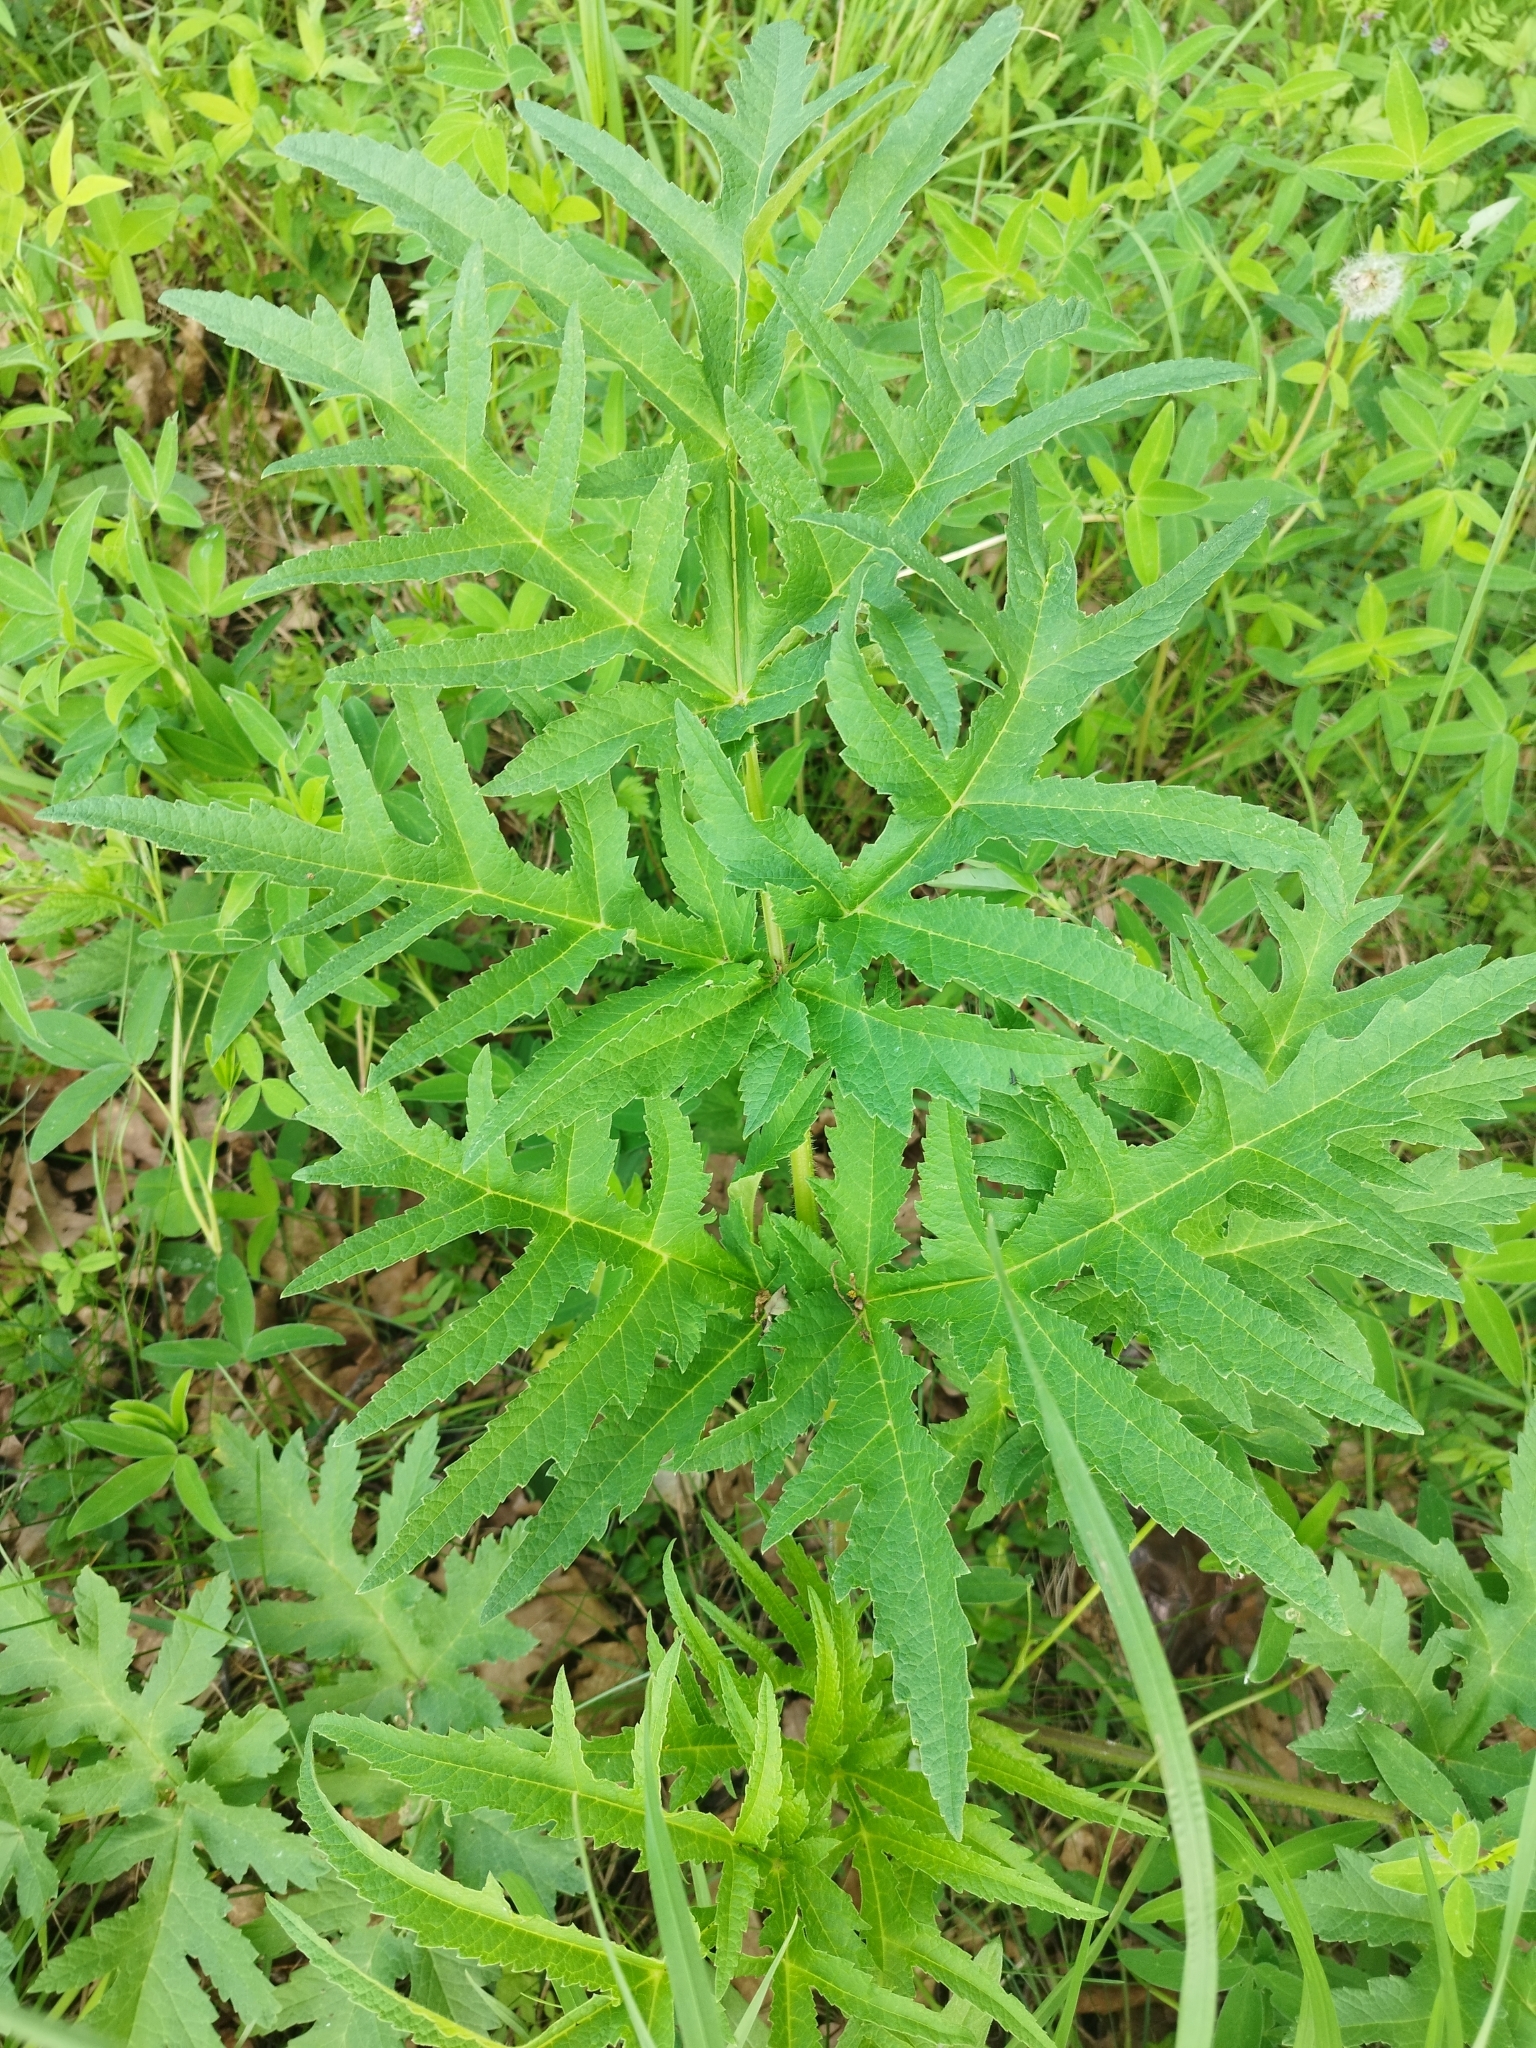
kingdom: Plantae
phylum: Tracheophyta
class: Magnoliopsida
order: Apiales
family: Apiaceae
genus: Heracleum
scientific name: Heracleum sphondylium
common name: Hogweed
